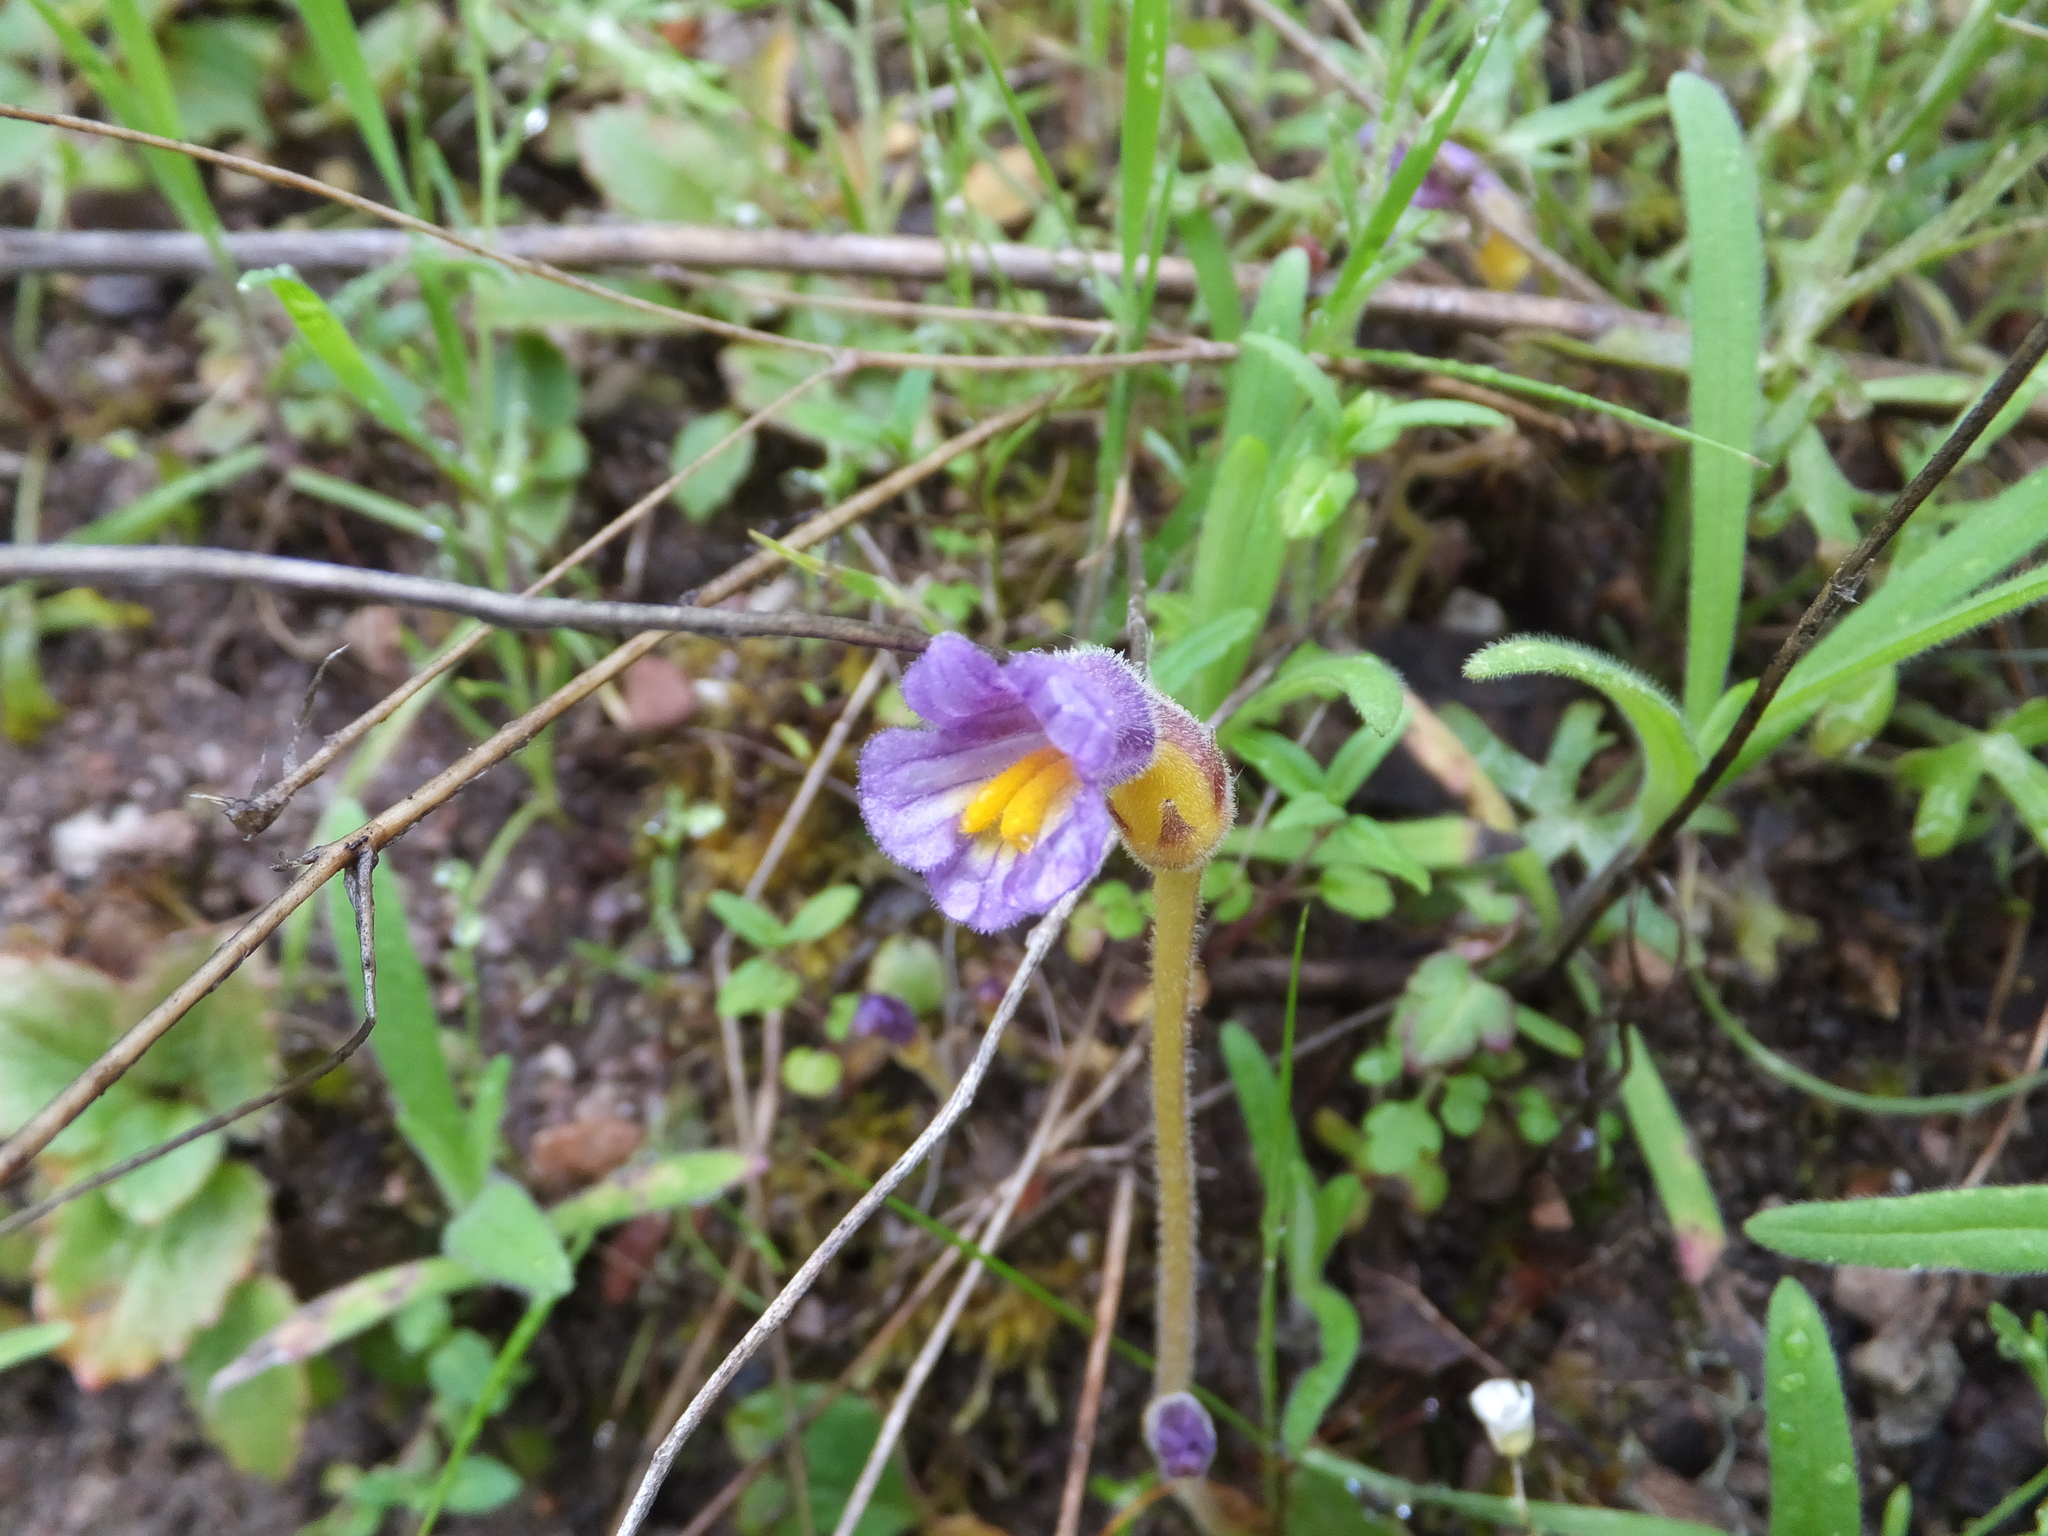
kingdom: Plantae
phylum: Tracheophyta
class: Magnoliopsida
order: Lamiales
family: Orobanchaceae
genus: Aphyllon
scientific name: Aphyllon uniflorum
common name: One-flowered broomrape
